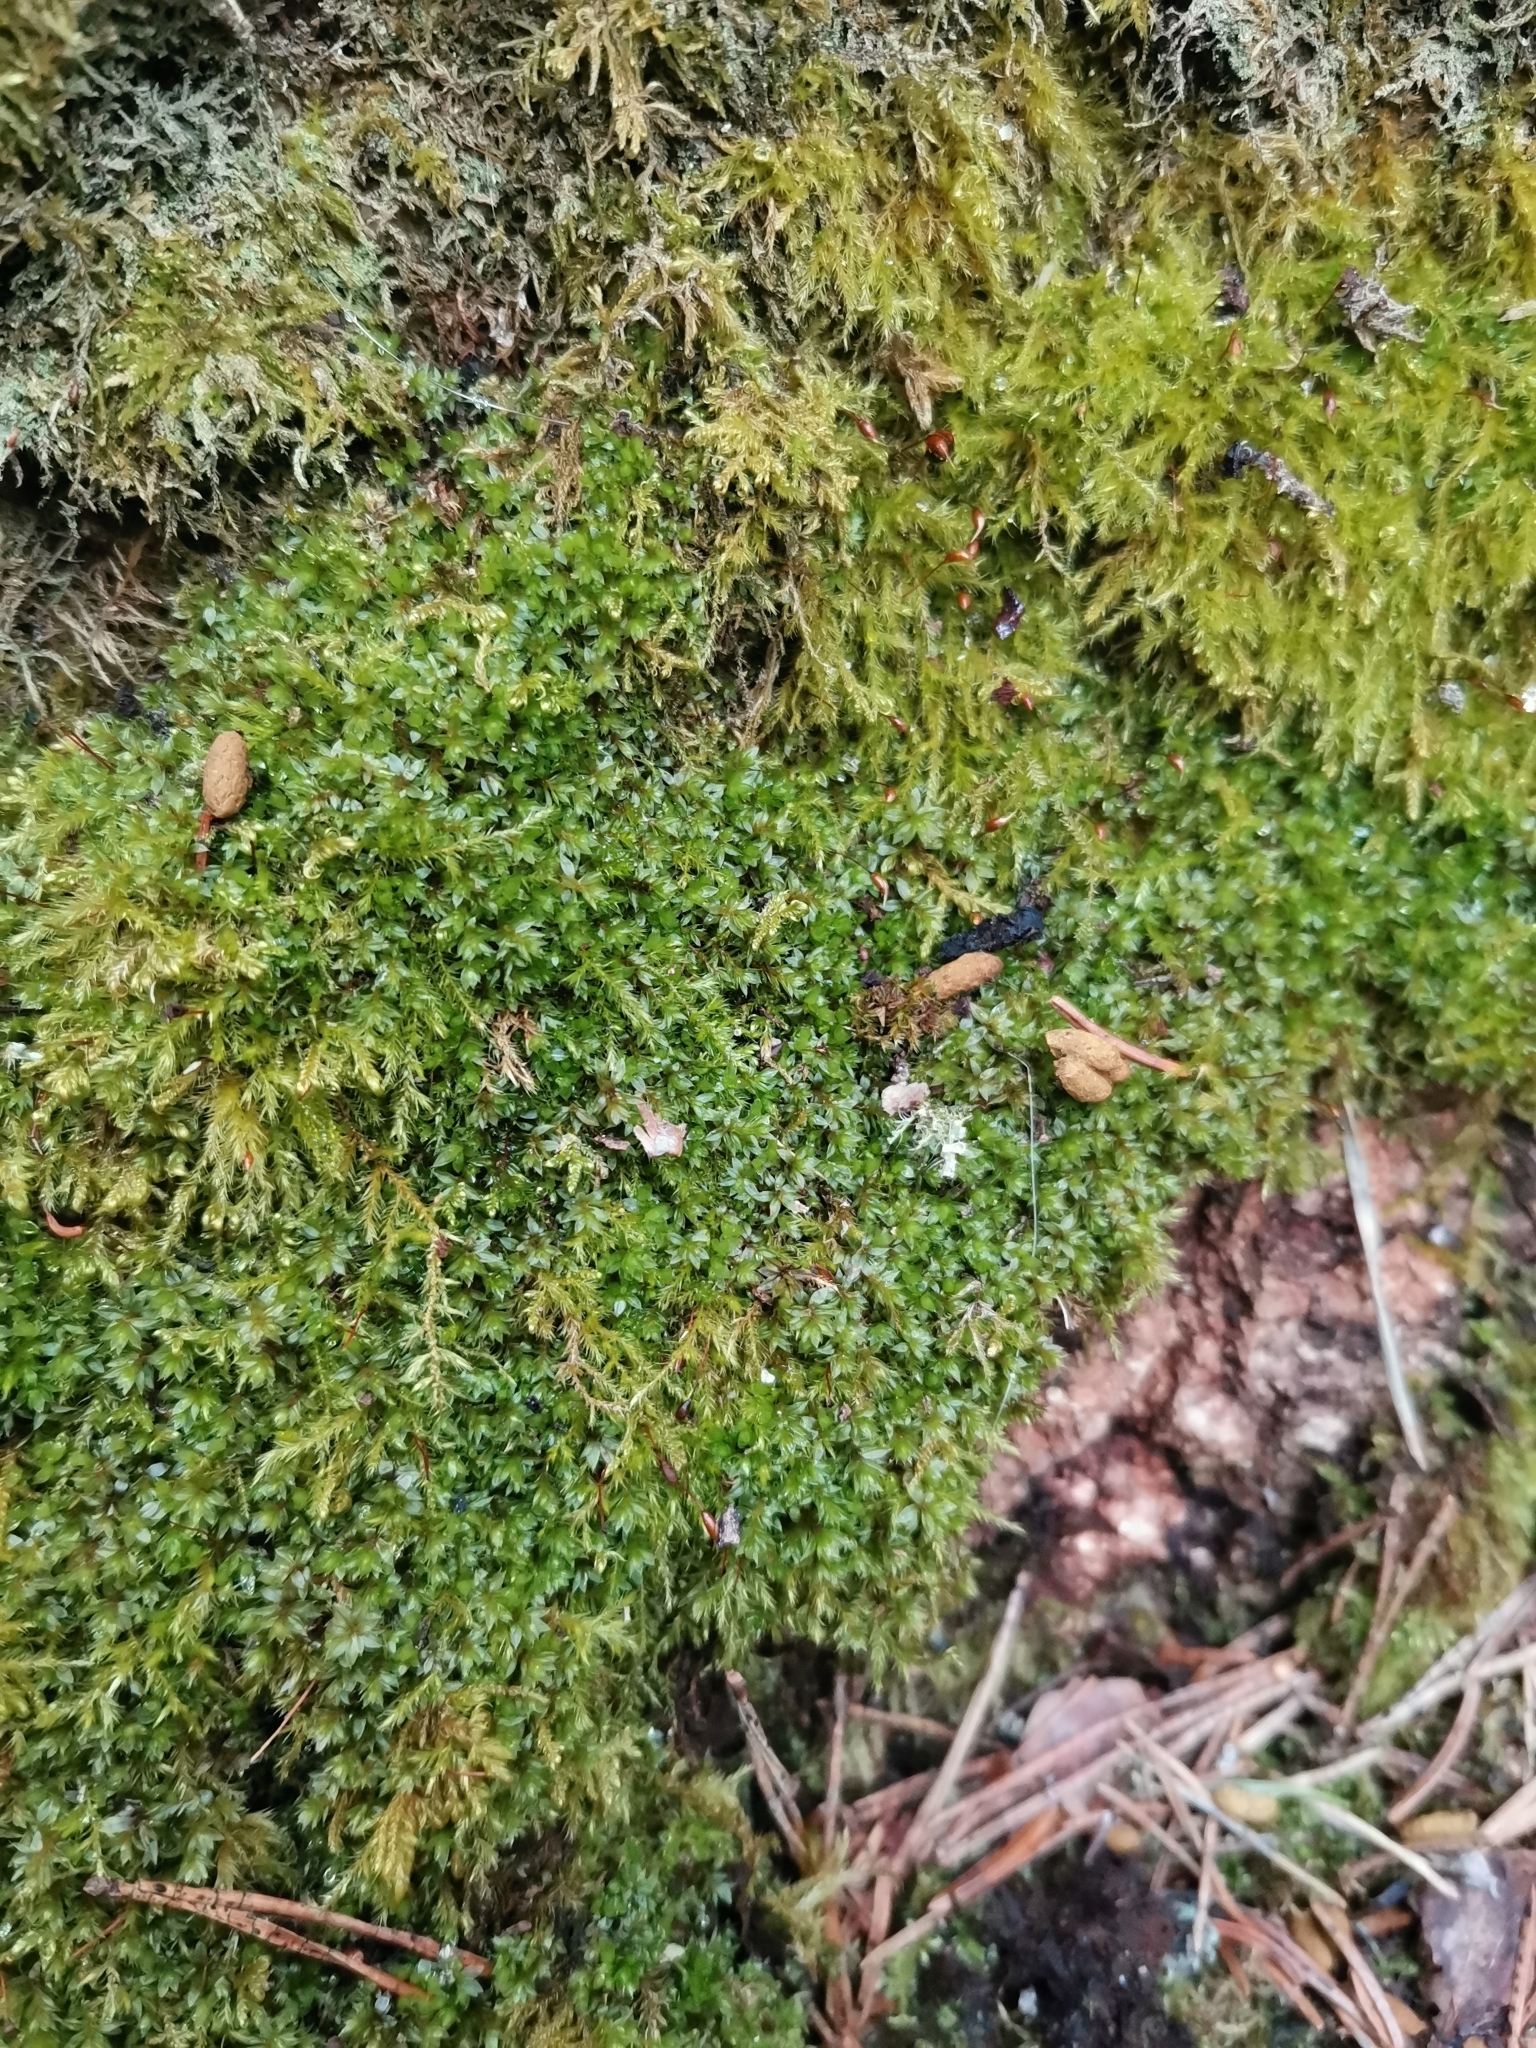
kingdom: Animalia
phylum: Chordata
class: Mammalia
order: Rodentia
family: Sciuridae
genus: Pteromys
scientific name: Pteromys volans
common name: Siberian flying squirrel
